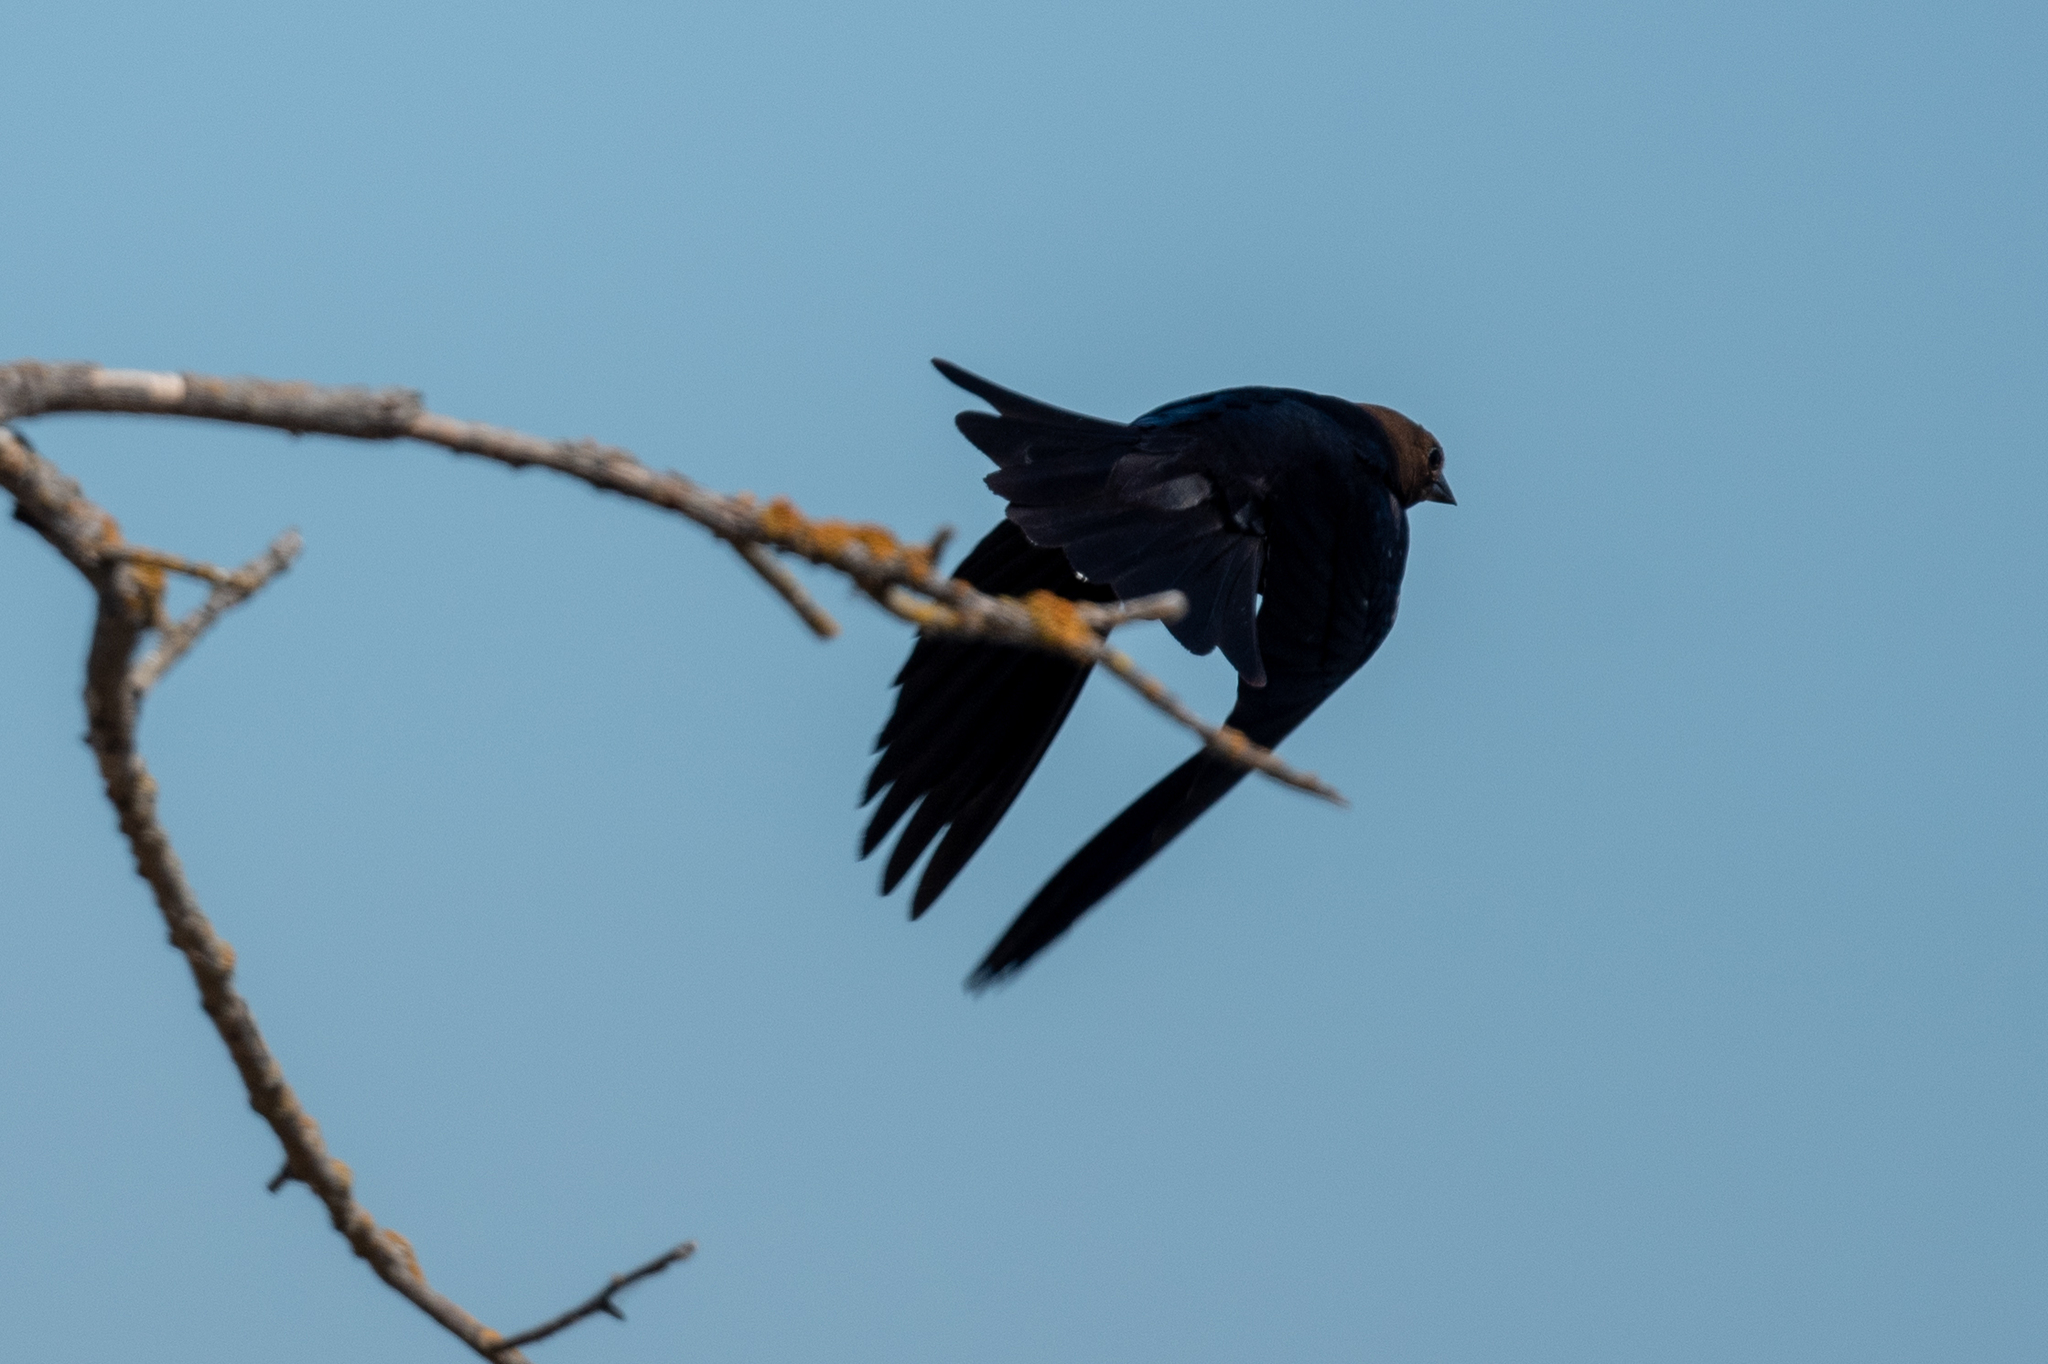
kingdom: Animalia
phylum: Chordata
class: Aves
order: Passeriformes
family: Icteridae
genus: Molothrus
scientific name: Molothrus ater
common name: Brown-headed cowbird
